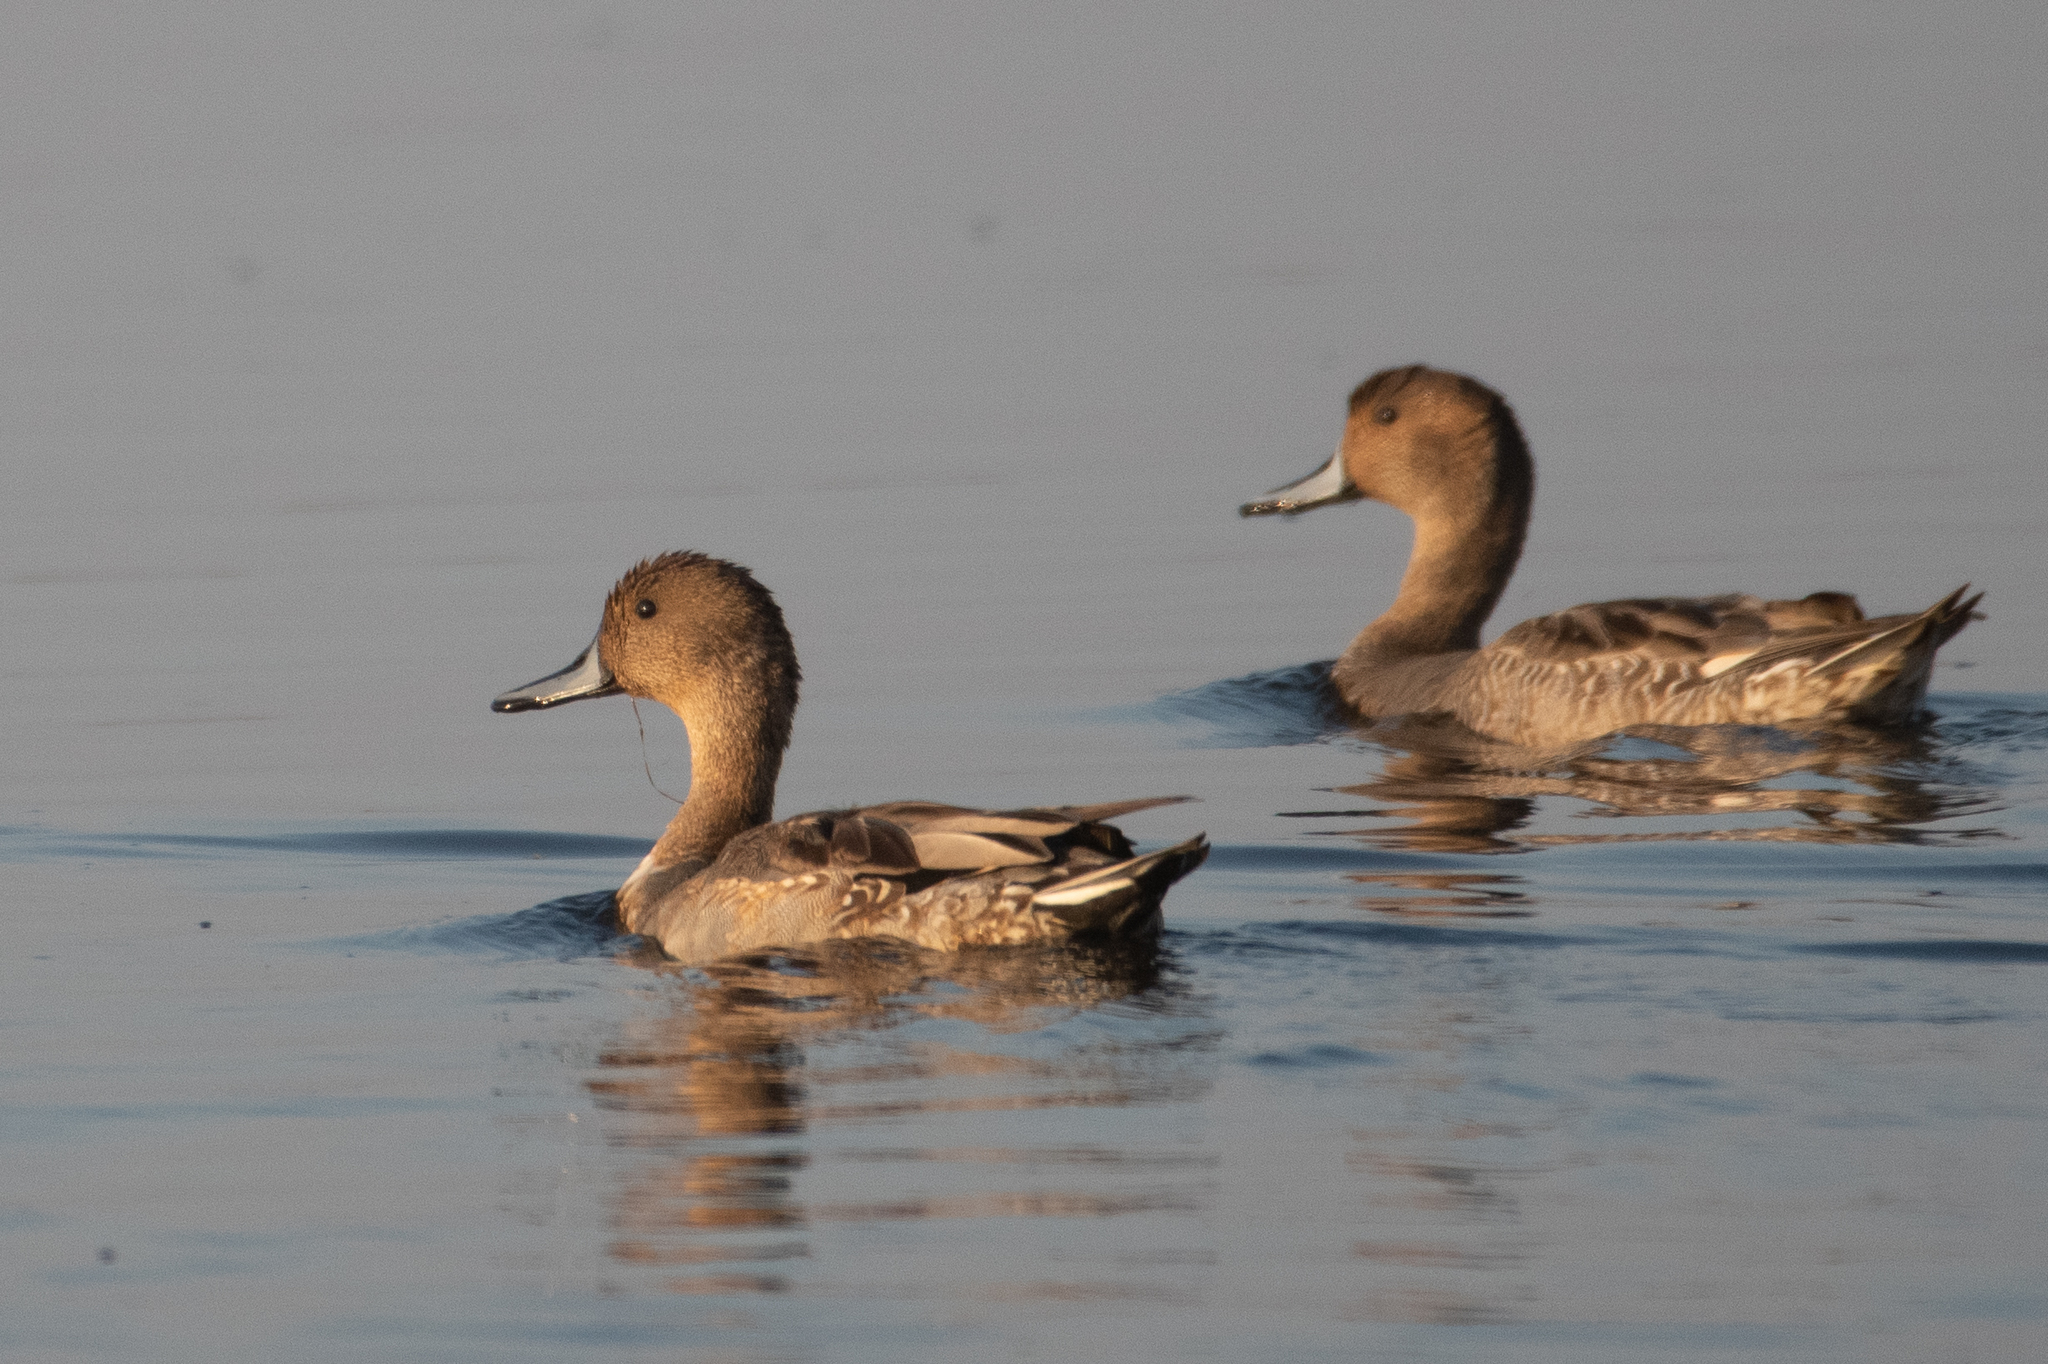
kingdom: Animalia
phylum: Chordata
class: Aves
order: Anseriformes
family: Anatidae
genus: Anas
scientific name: Anas acuta
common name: Northern pintail
